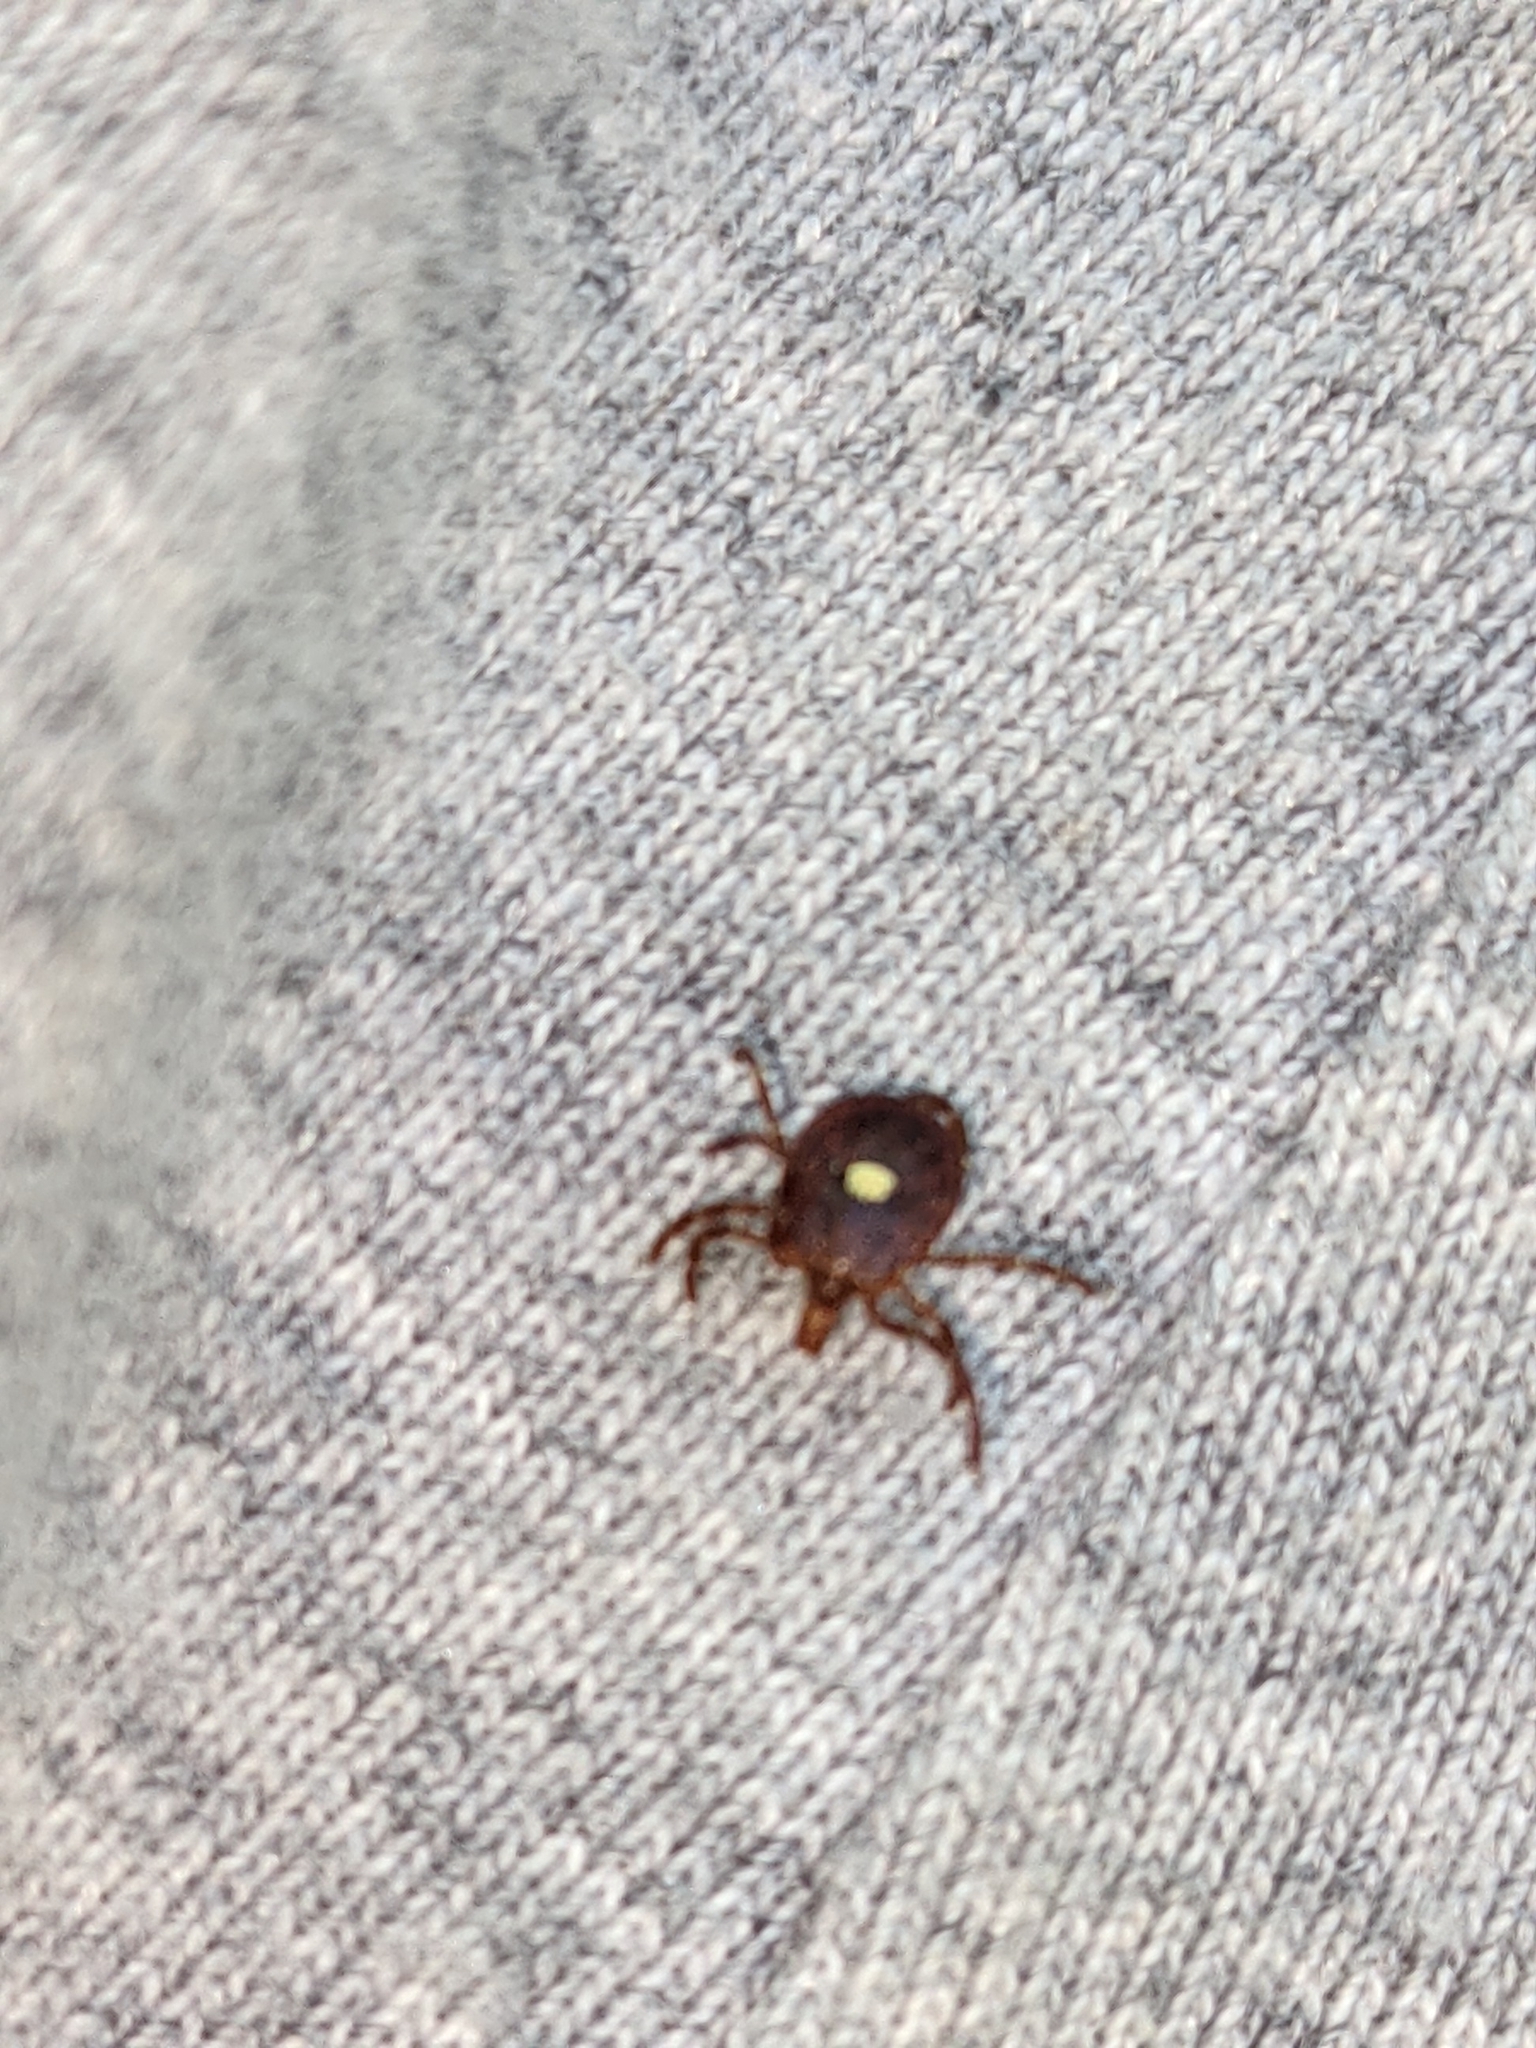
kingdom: Animalia
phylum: Arthropoda
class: Arachnida
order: Ixodida
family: Ixodidae
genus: Amblyomma
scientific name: Amblyomma americanum
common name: Lone star tick
